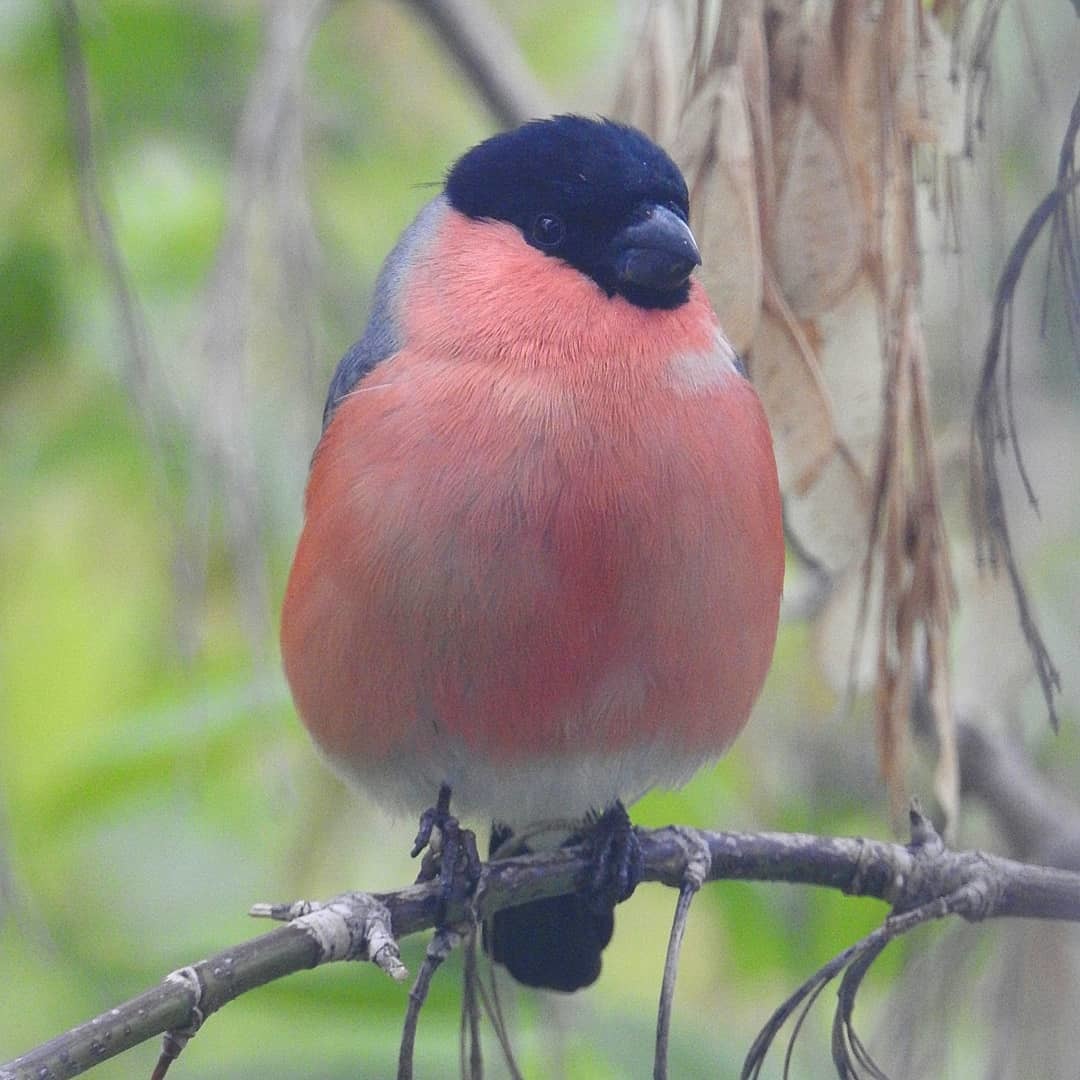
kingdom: Animalia
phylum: Chordata
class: Aves
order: Passeriformes
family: Fringillidae
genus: Pyrrhula
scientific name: Pyrrhula pyrrhula
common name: Eurasian bullfinch
